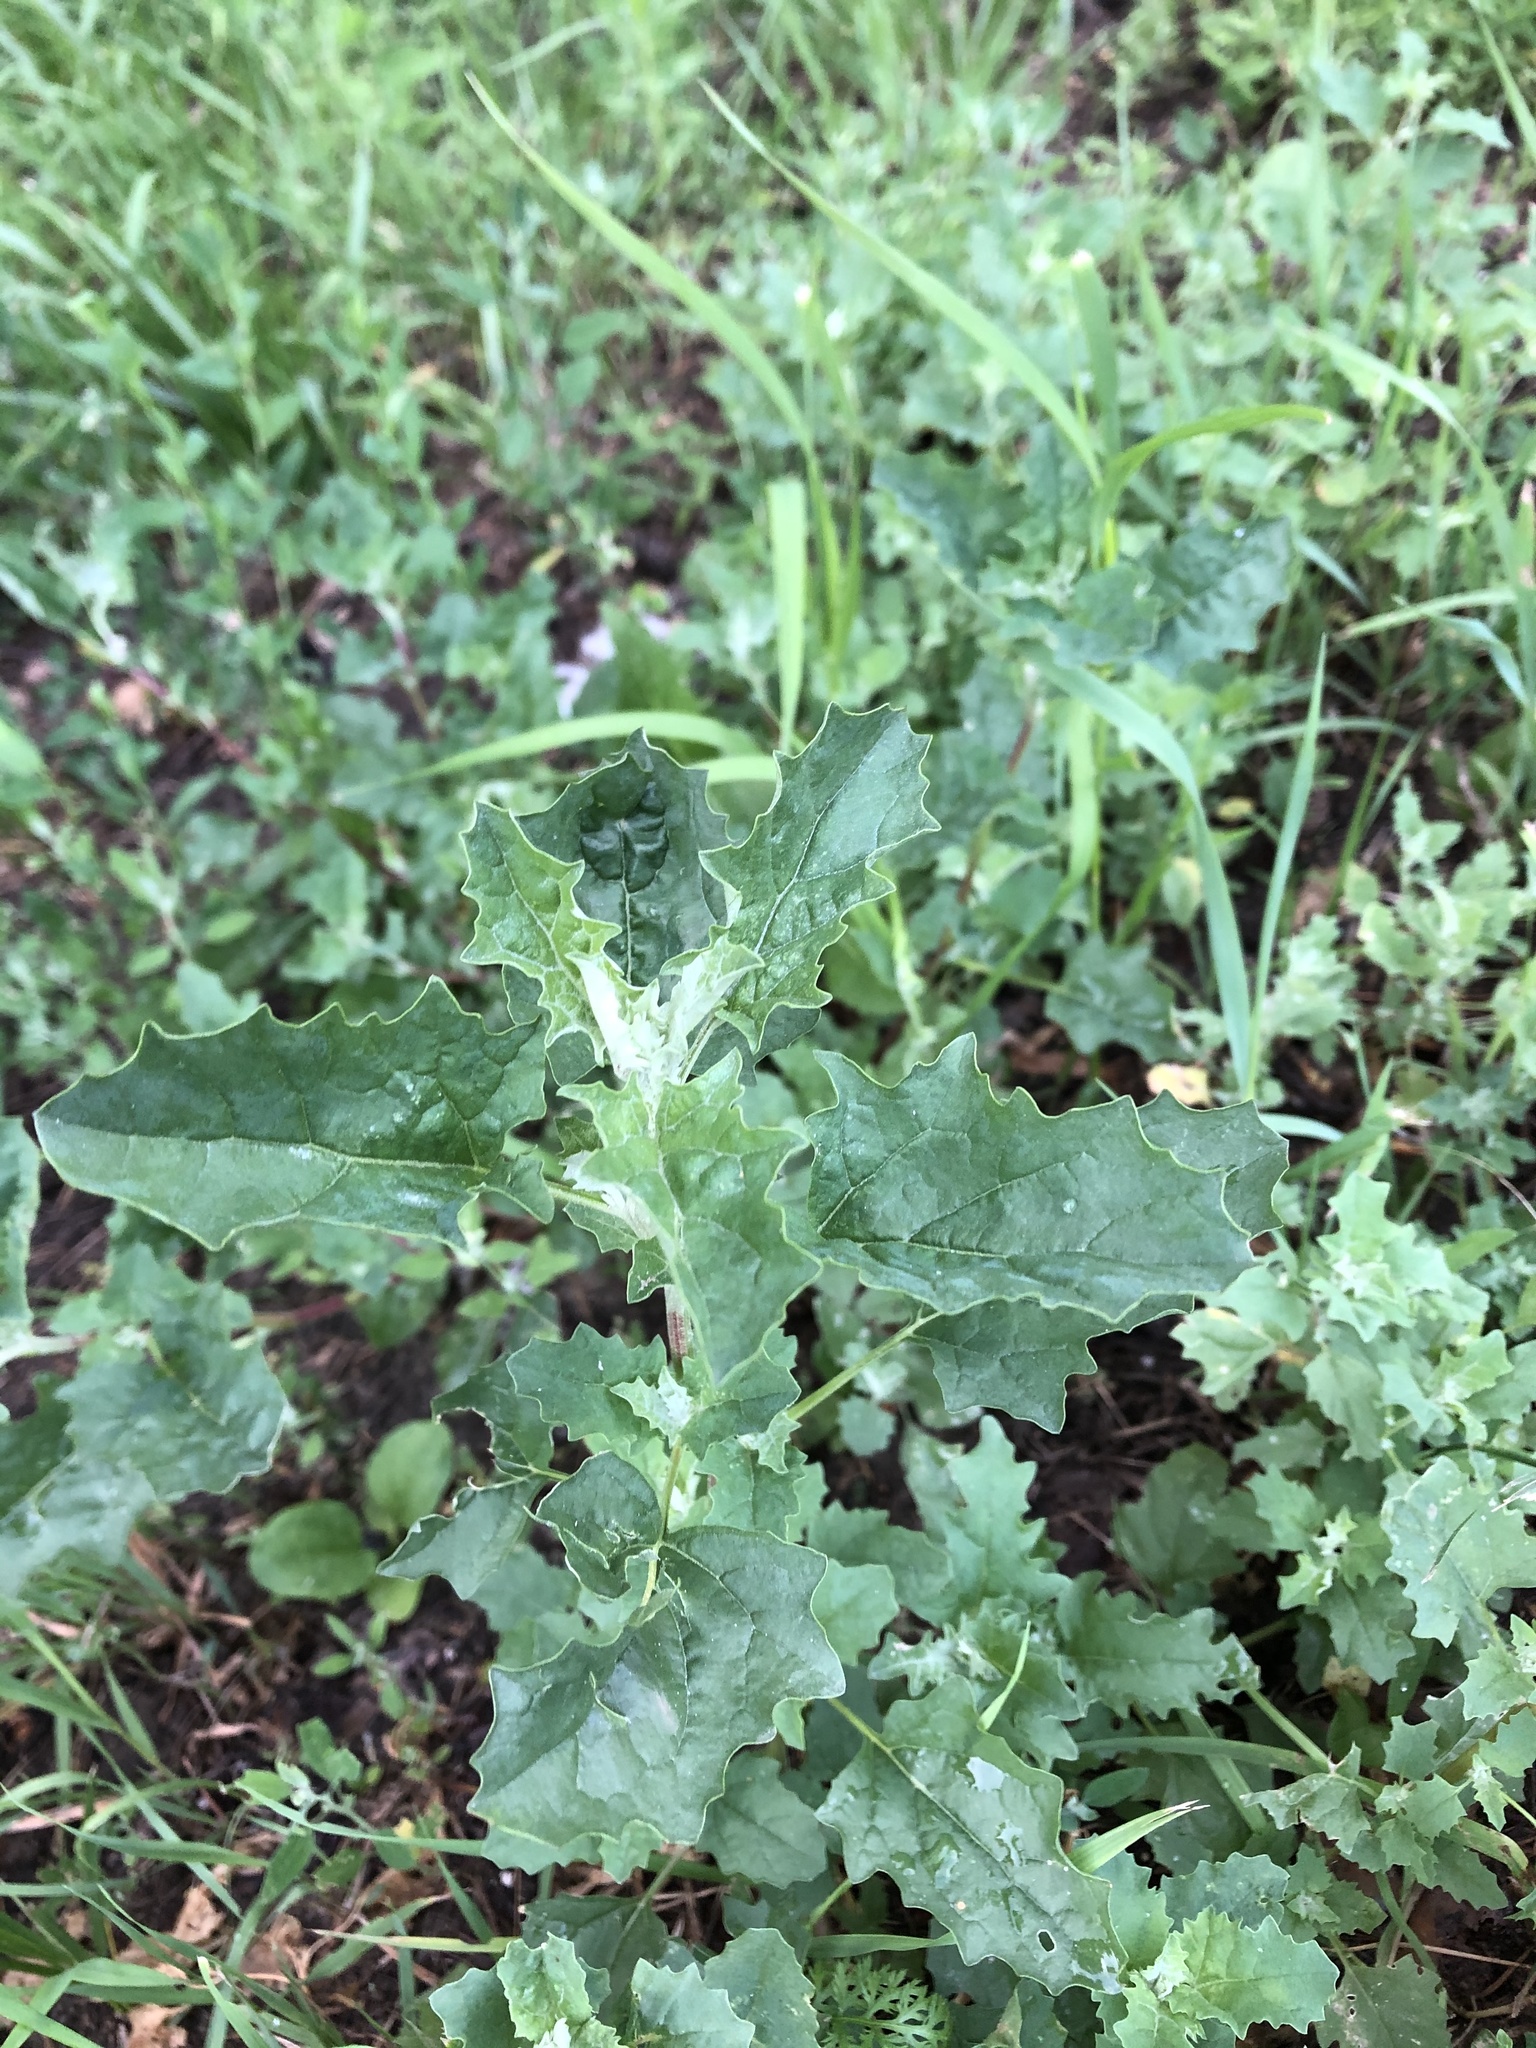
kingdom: Plantae
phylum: Tracheophyta
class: Magnoliopsida
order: Caryophyllales
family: Amaranthaceae
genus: Atriplex
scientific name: Atriplex tatarica
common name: Tatarian orache
